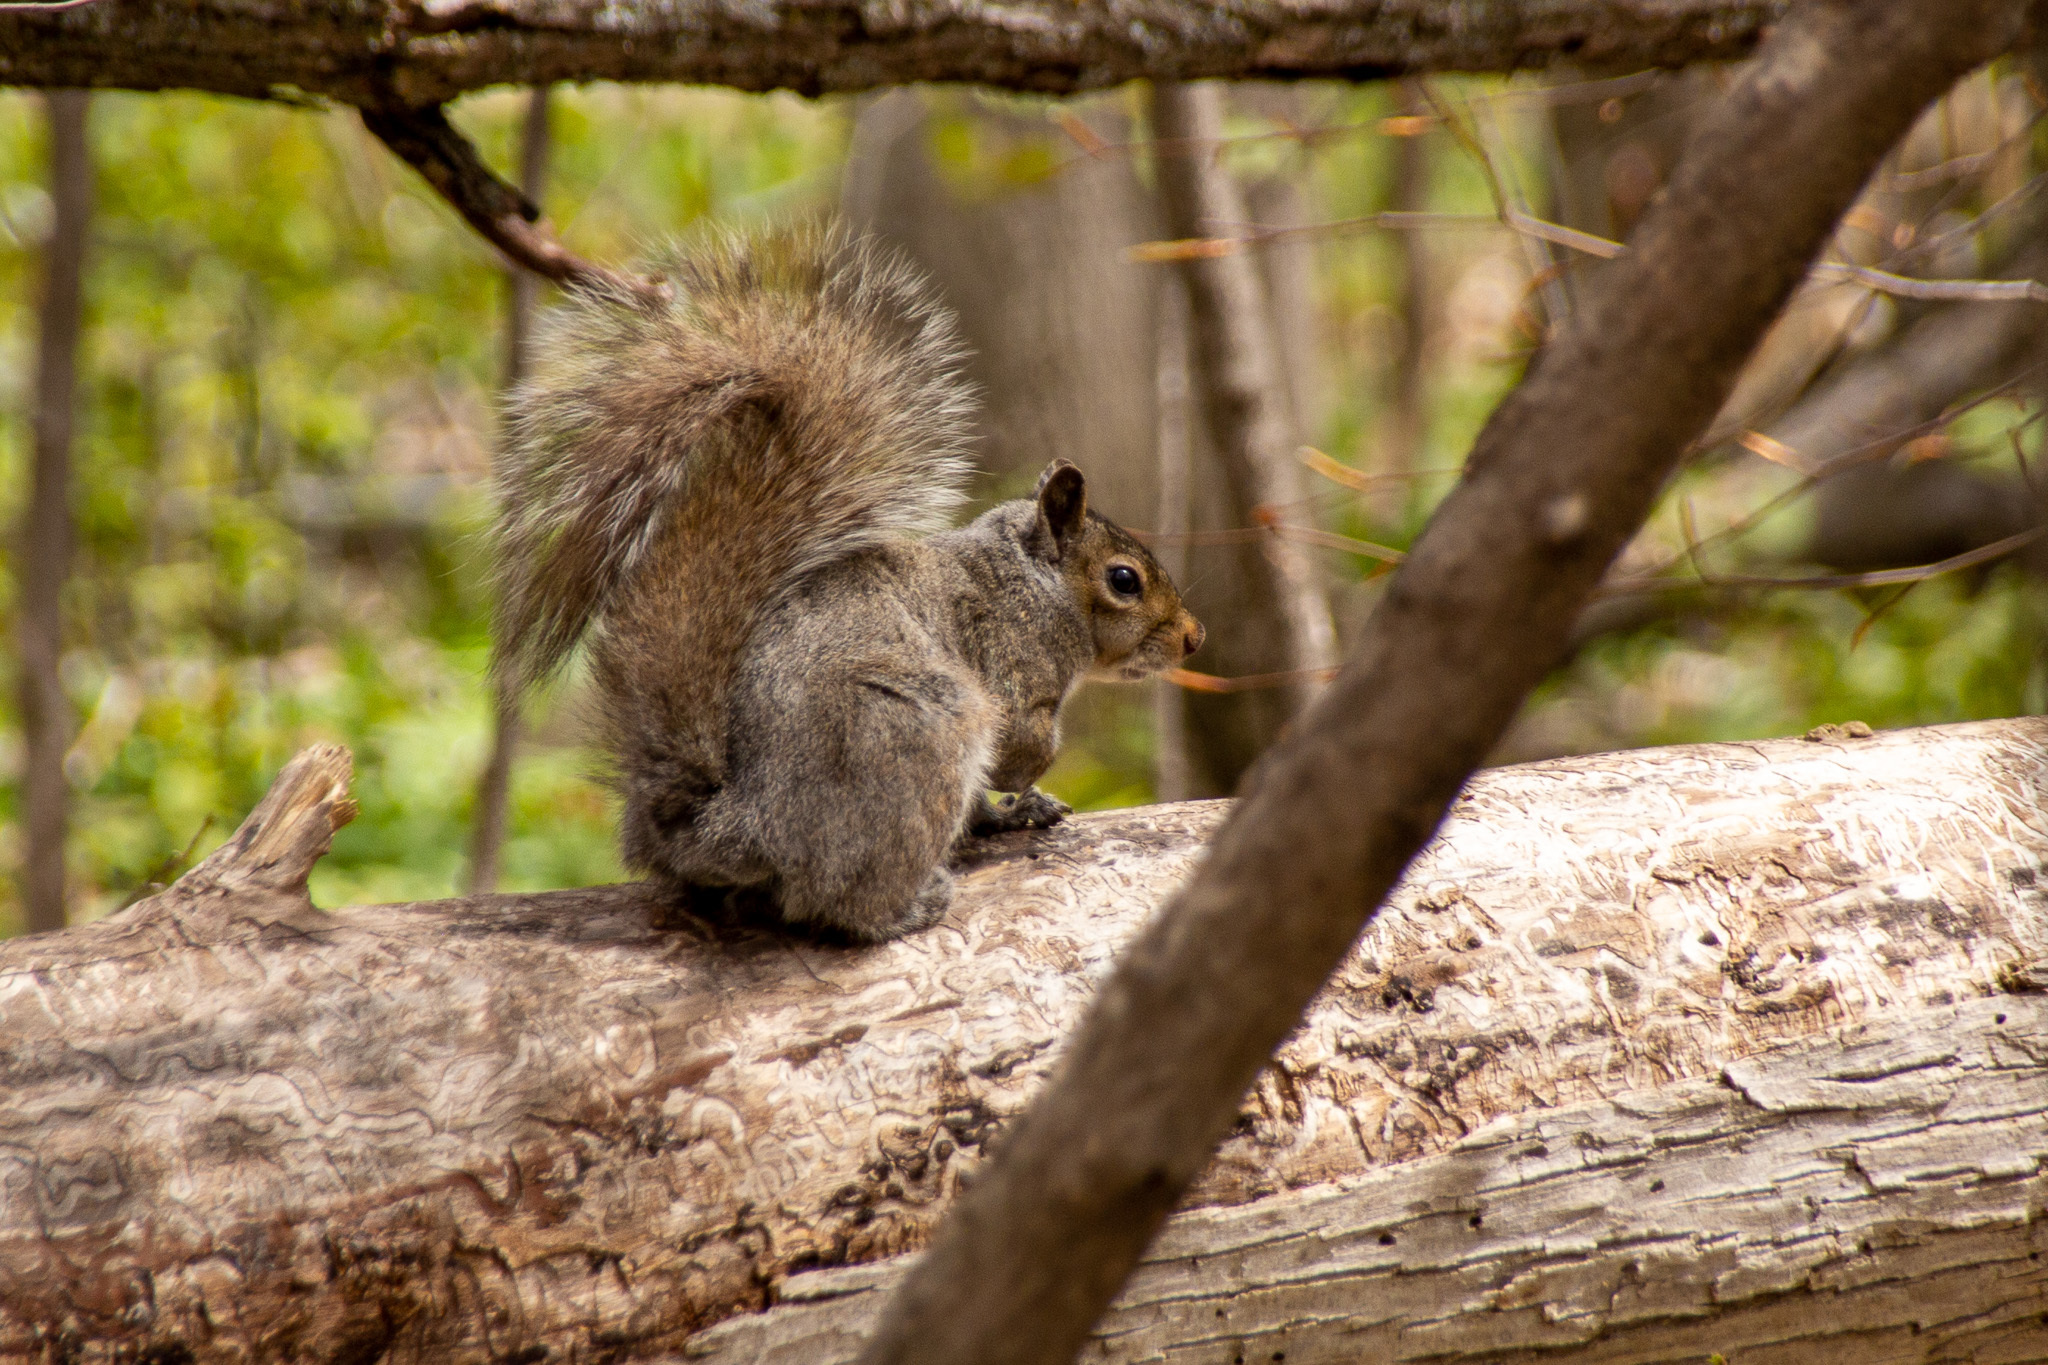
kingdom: Animalia
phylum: Chordata
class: Mammalia
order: Rodentia
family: Sciuridae
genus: Sciurus
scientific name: Sciurus carolinensis
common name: Eastern gray squirrel
